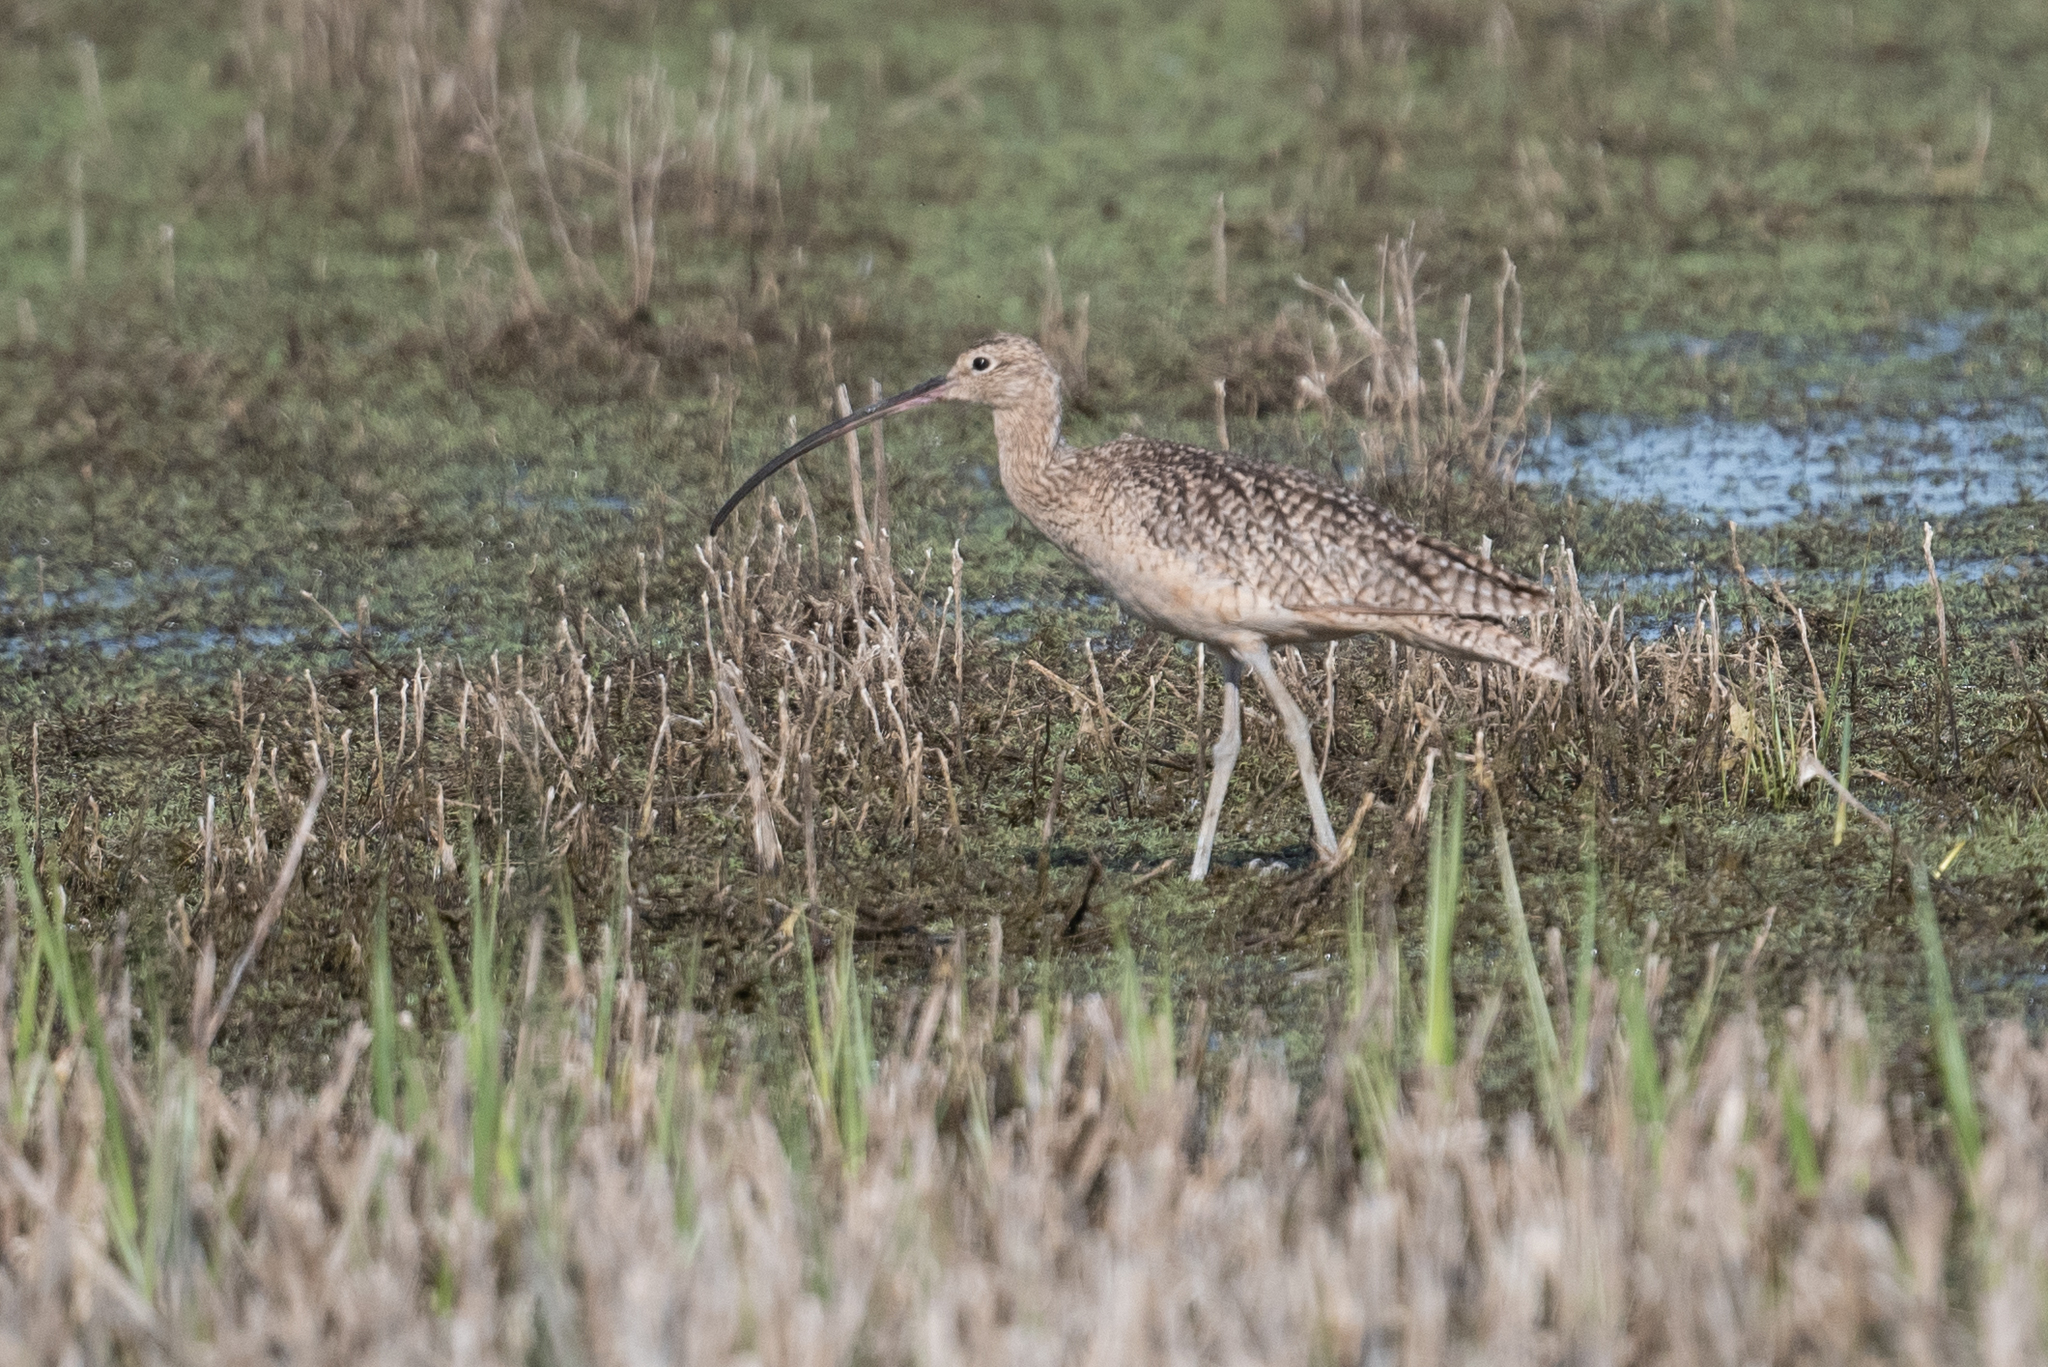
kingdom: Animalia
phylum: Chordata
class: Aves
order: Charadriiformes
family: Scolopacidae
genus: Numenius
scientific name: Numenius americanus
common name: Long-billed curlew
